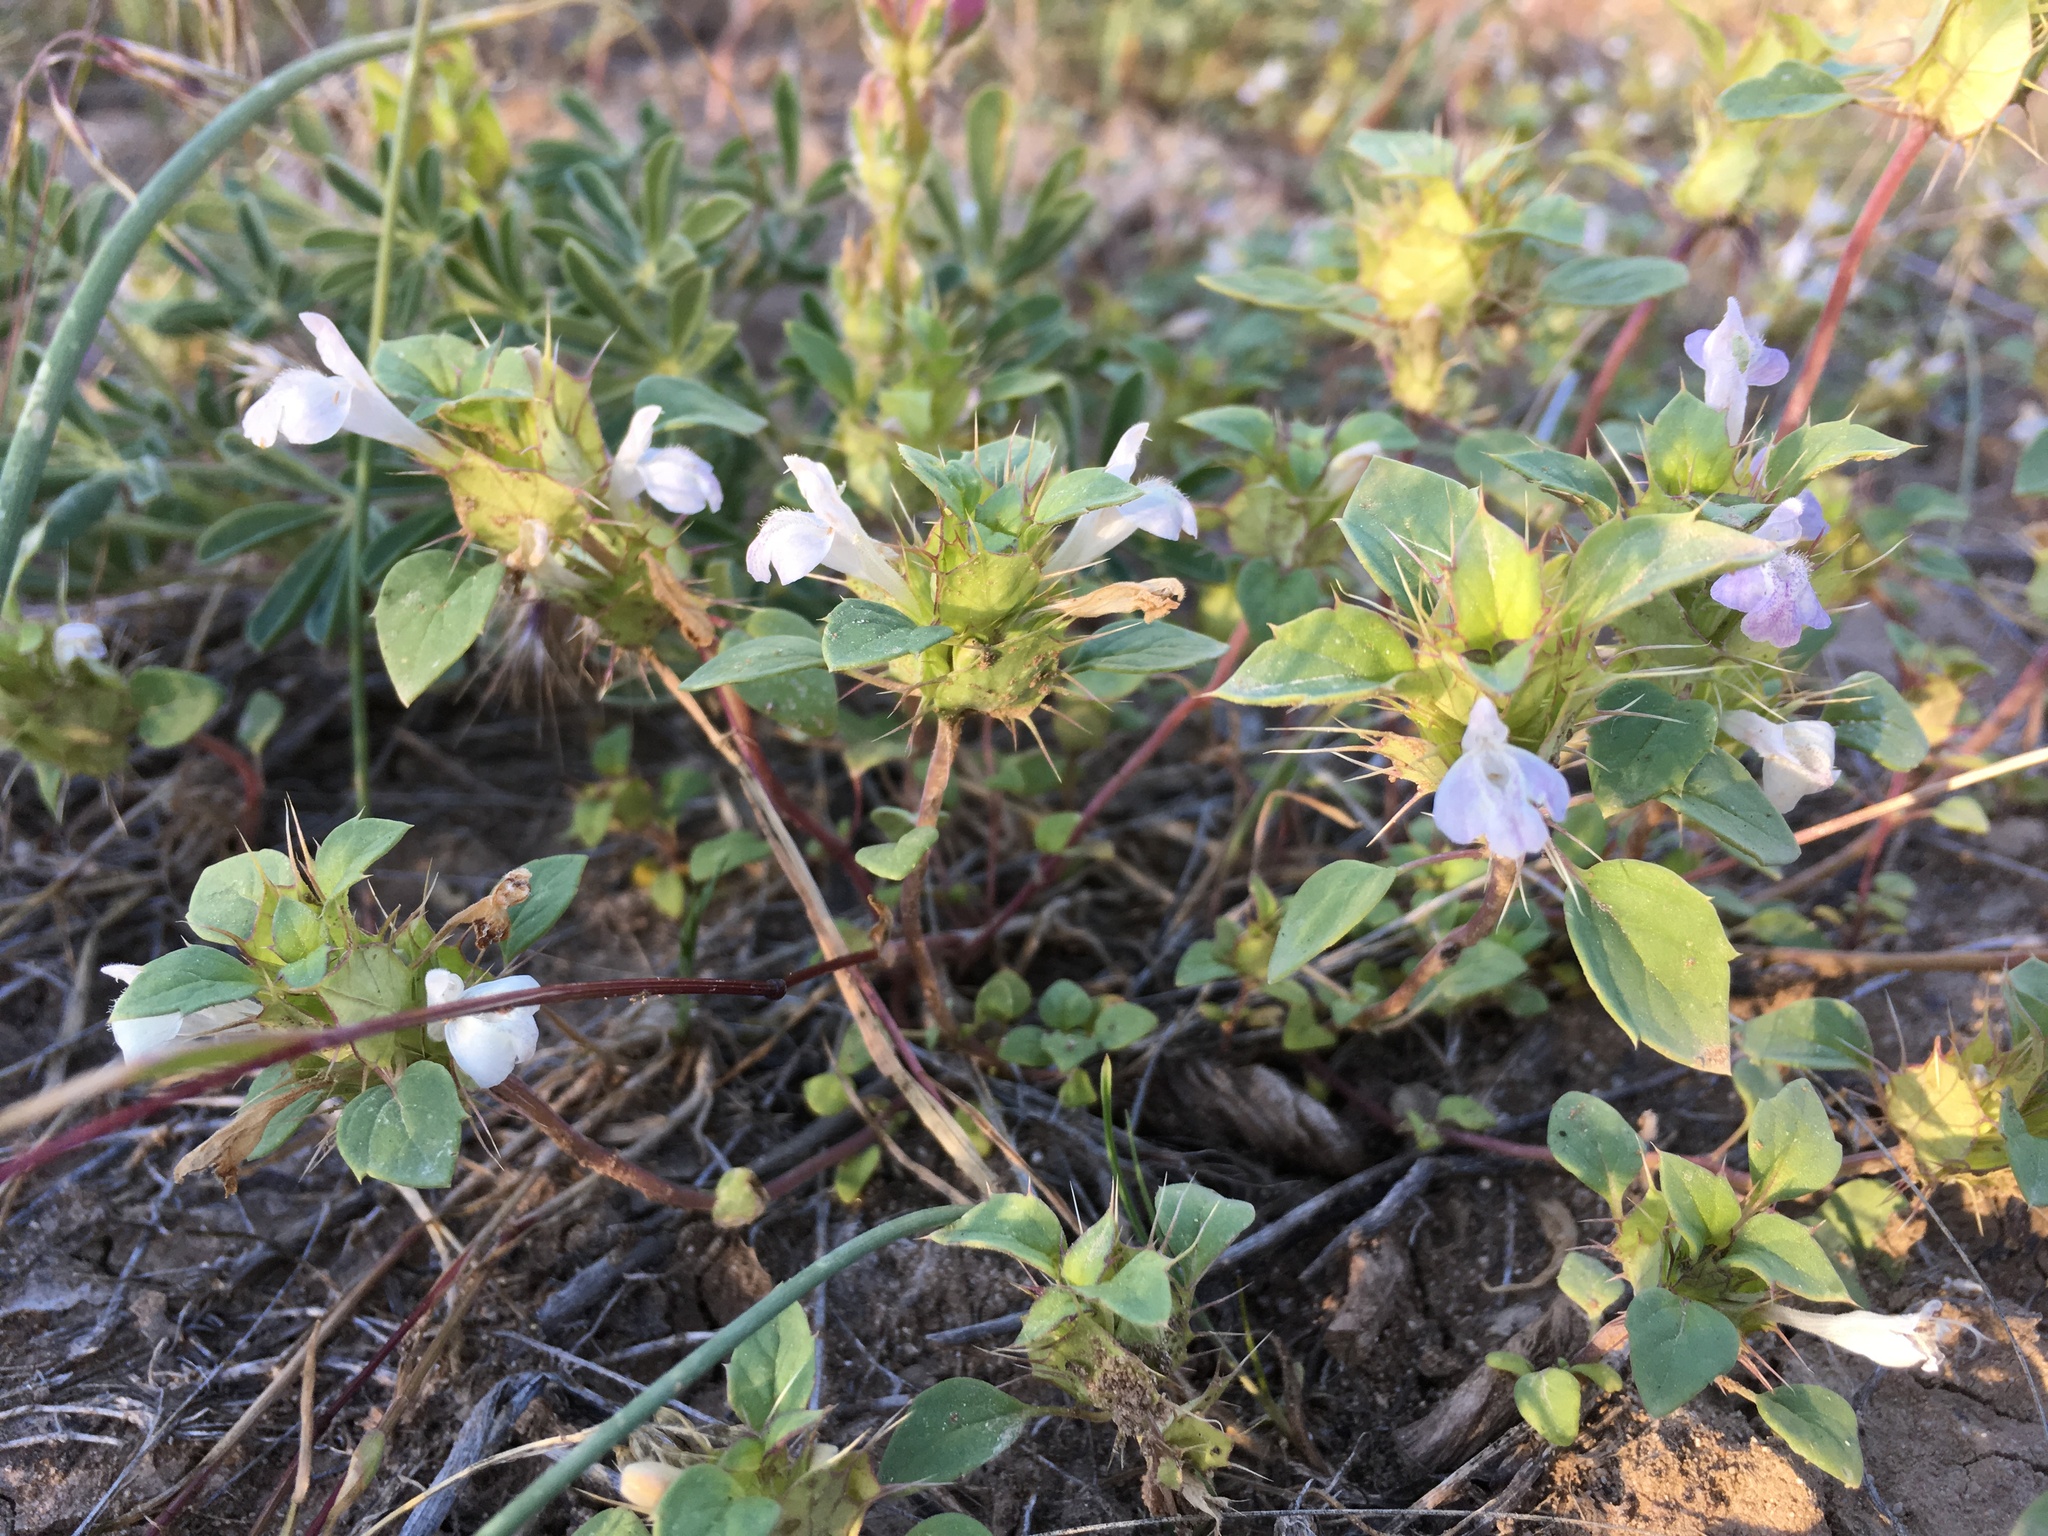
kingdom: Plantae
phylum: Tracheophyta
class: Magnoliopsida
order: Lamiales
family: Lamiaceae
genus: Acanthomintha
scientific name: Acanthomintha obovata
